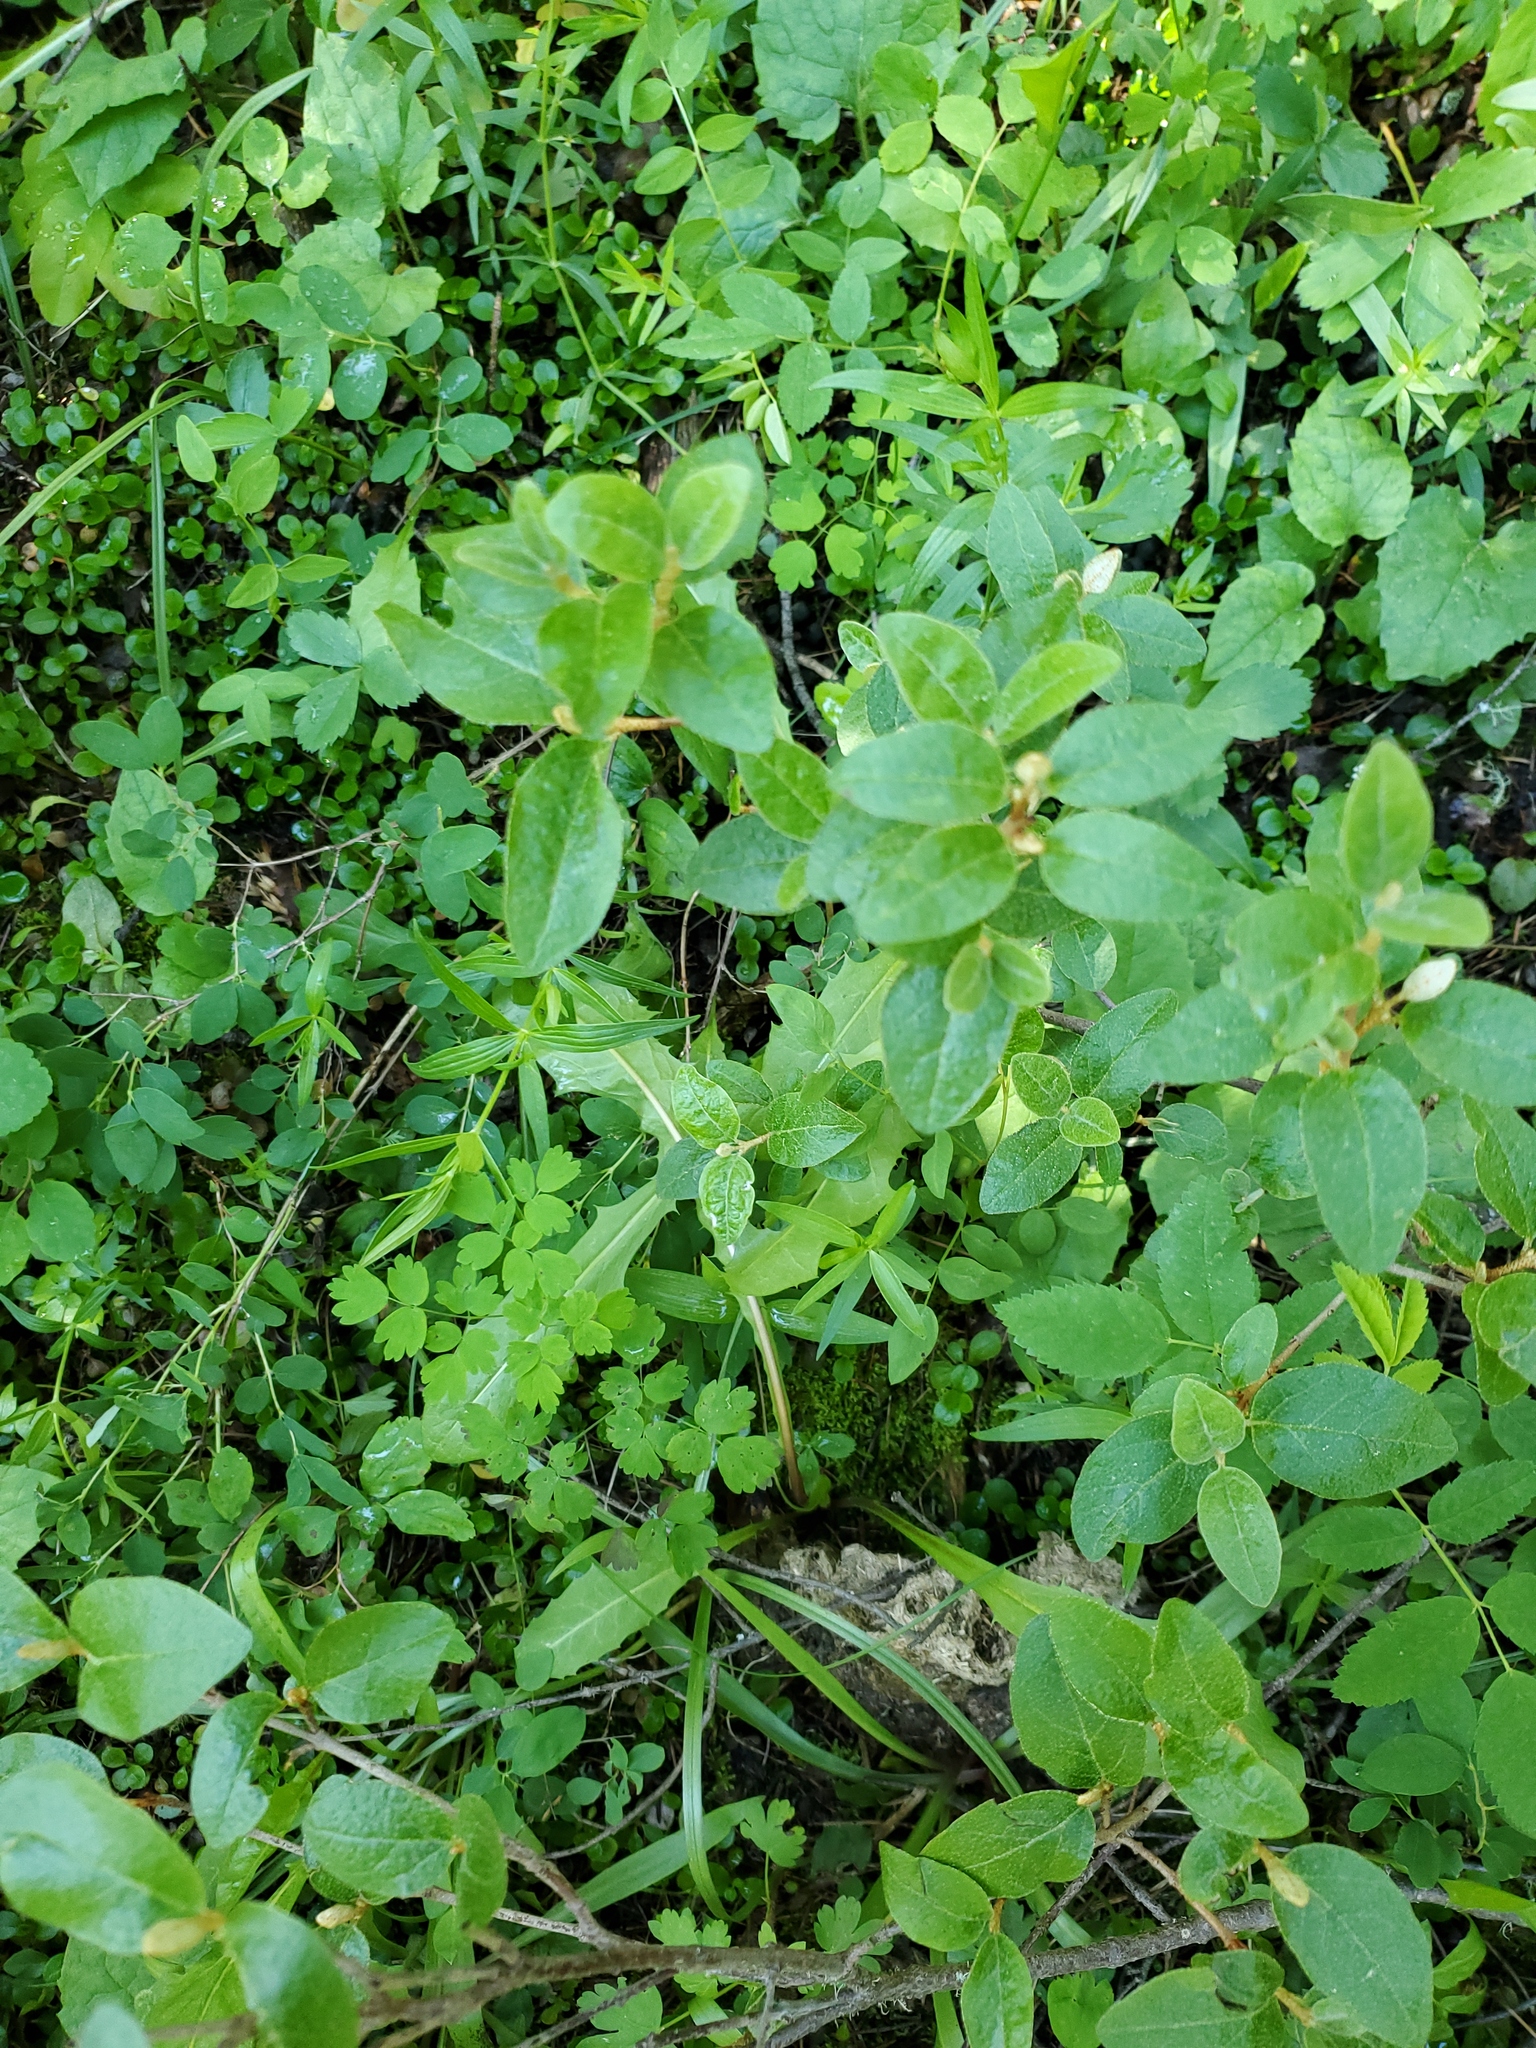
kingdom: Plantae
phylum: Tracheophyta
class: Magnoliopsida
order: Rosales
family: Elaeagnaceae
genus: Shepherdia
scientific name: Shepherdia canadensis
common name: Soapberry
